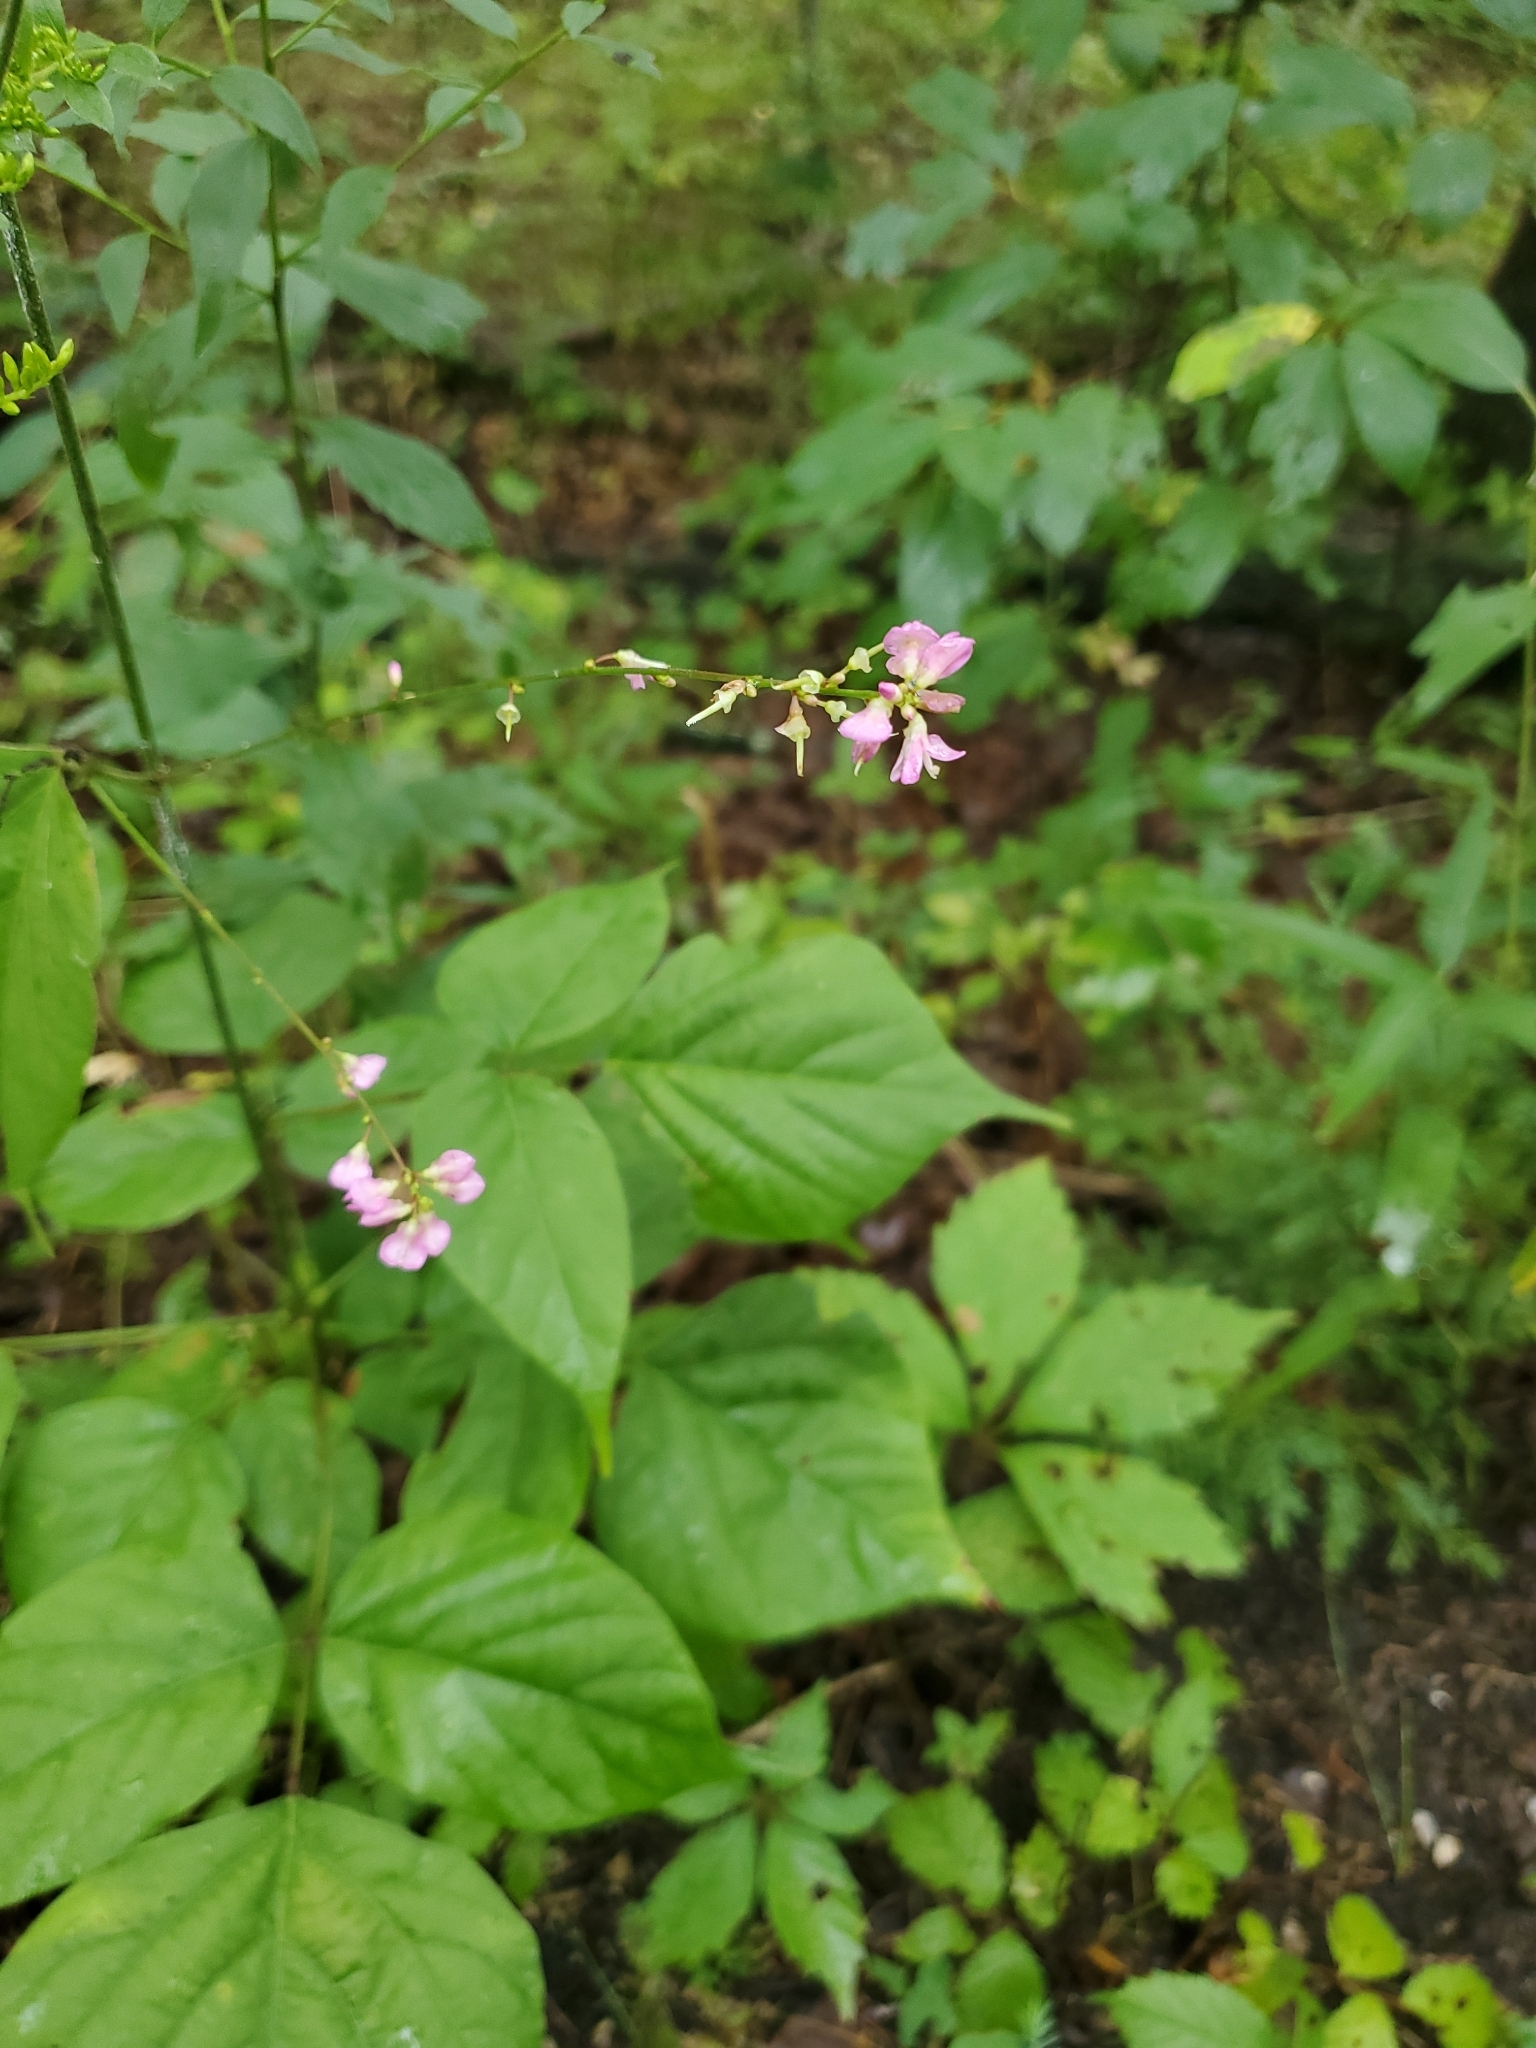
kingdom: Plantae
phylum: Tracheophyta
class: Magnoliopsida
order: Fabales
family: Fabaceae
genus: Hylodesmum
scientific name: Hylodesmum glutinosum
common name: Clustered-leaved tick-trefoil
